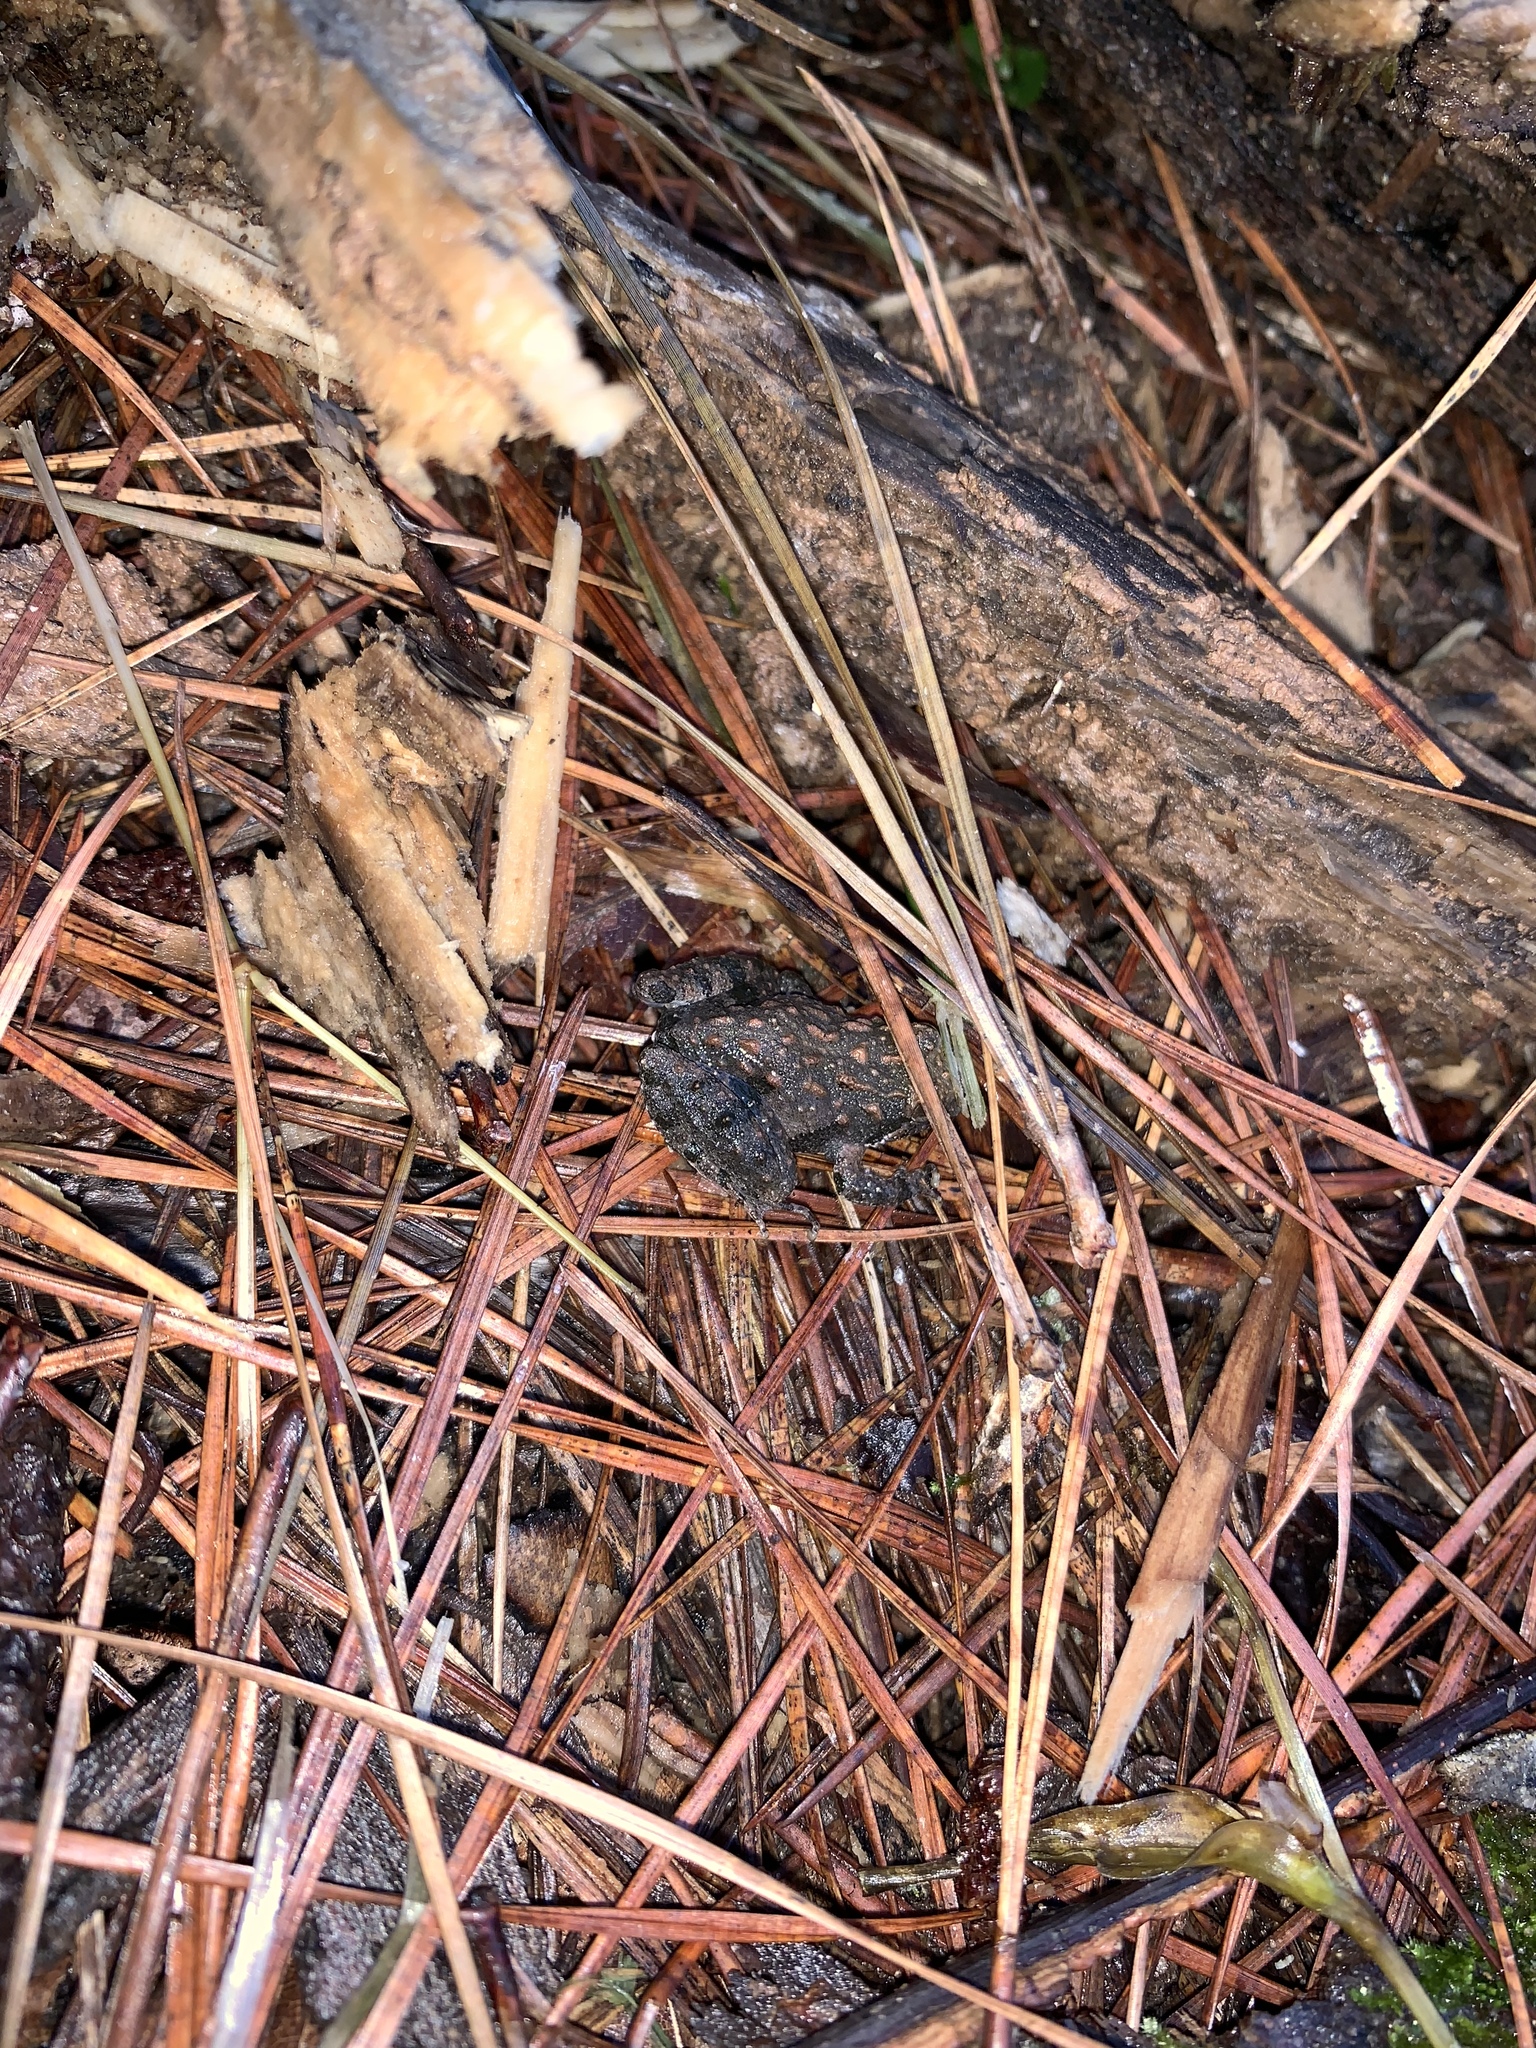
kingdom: Animalia
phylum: Chordata
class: Amphibia
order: Anura
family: Hylidae
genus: Acris
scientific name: Acris crepitans
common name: Northern cricket frog
